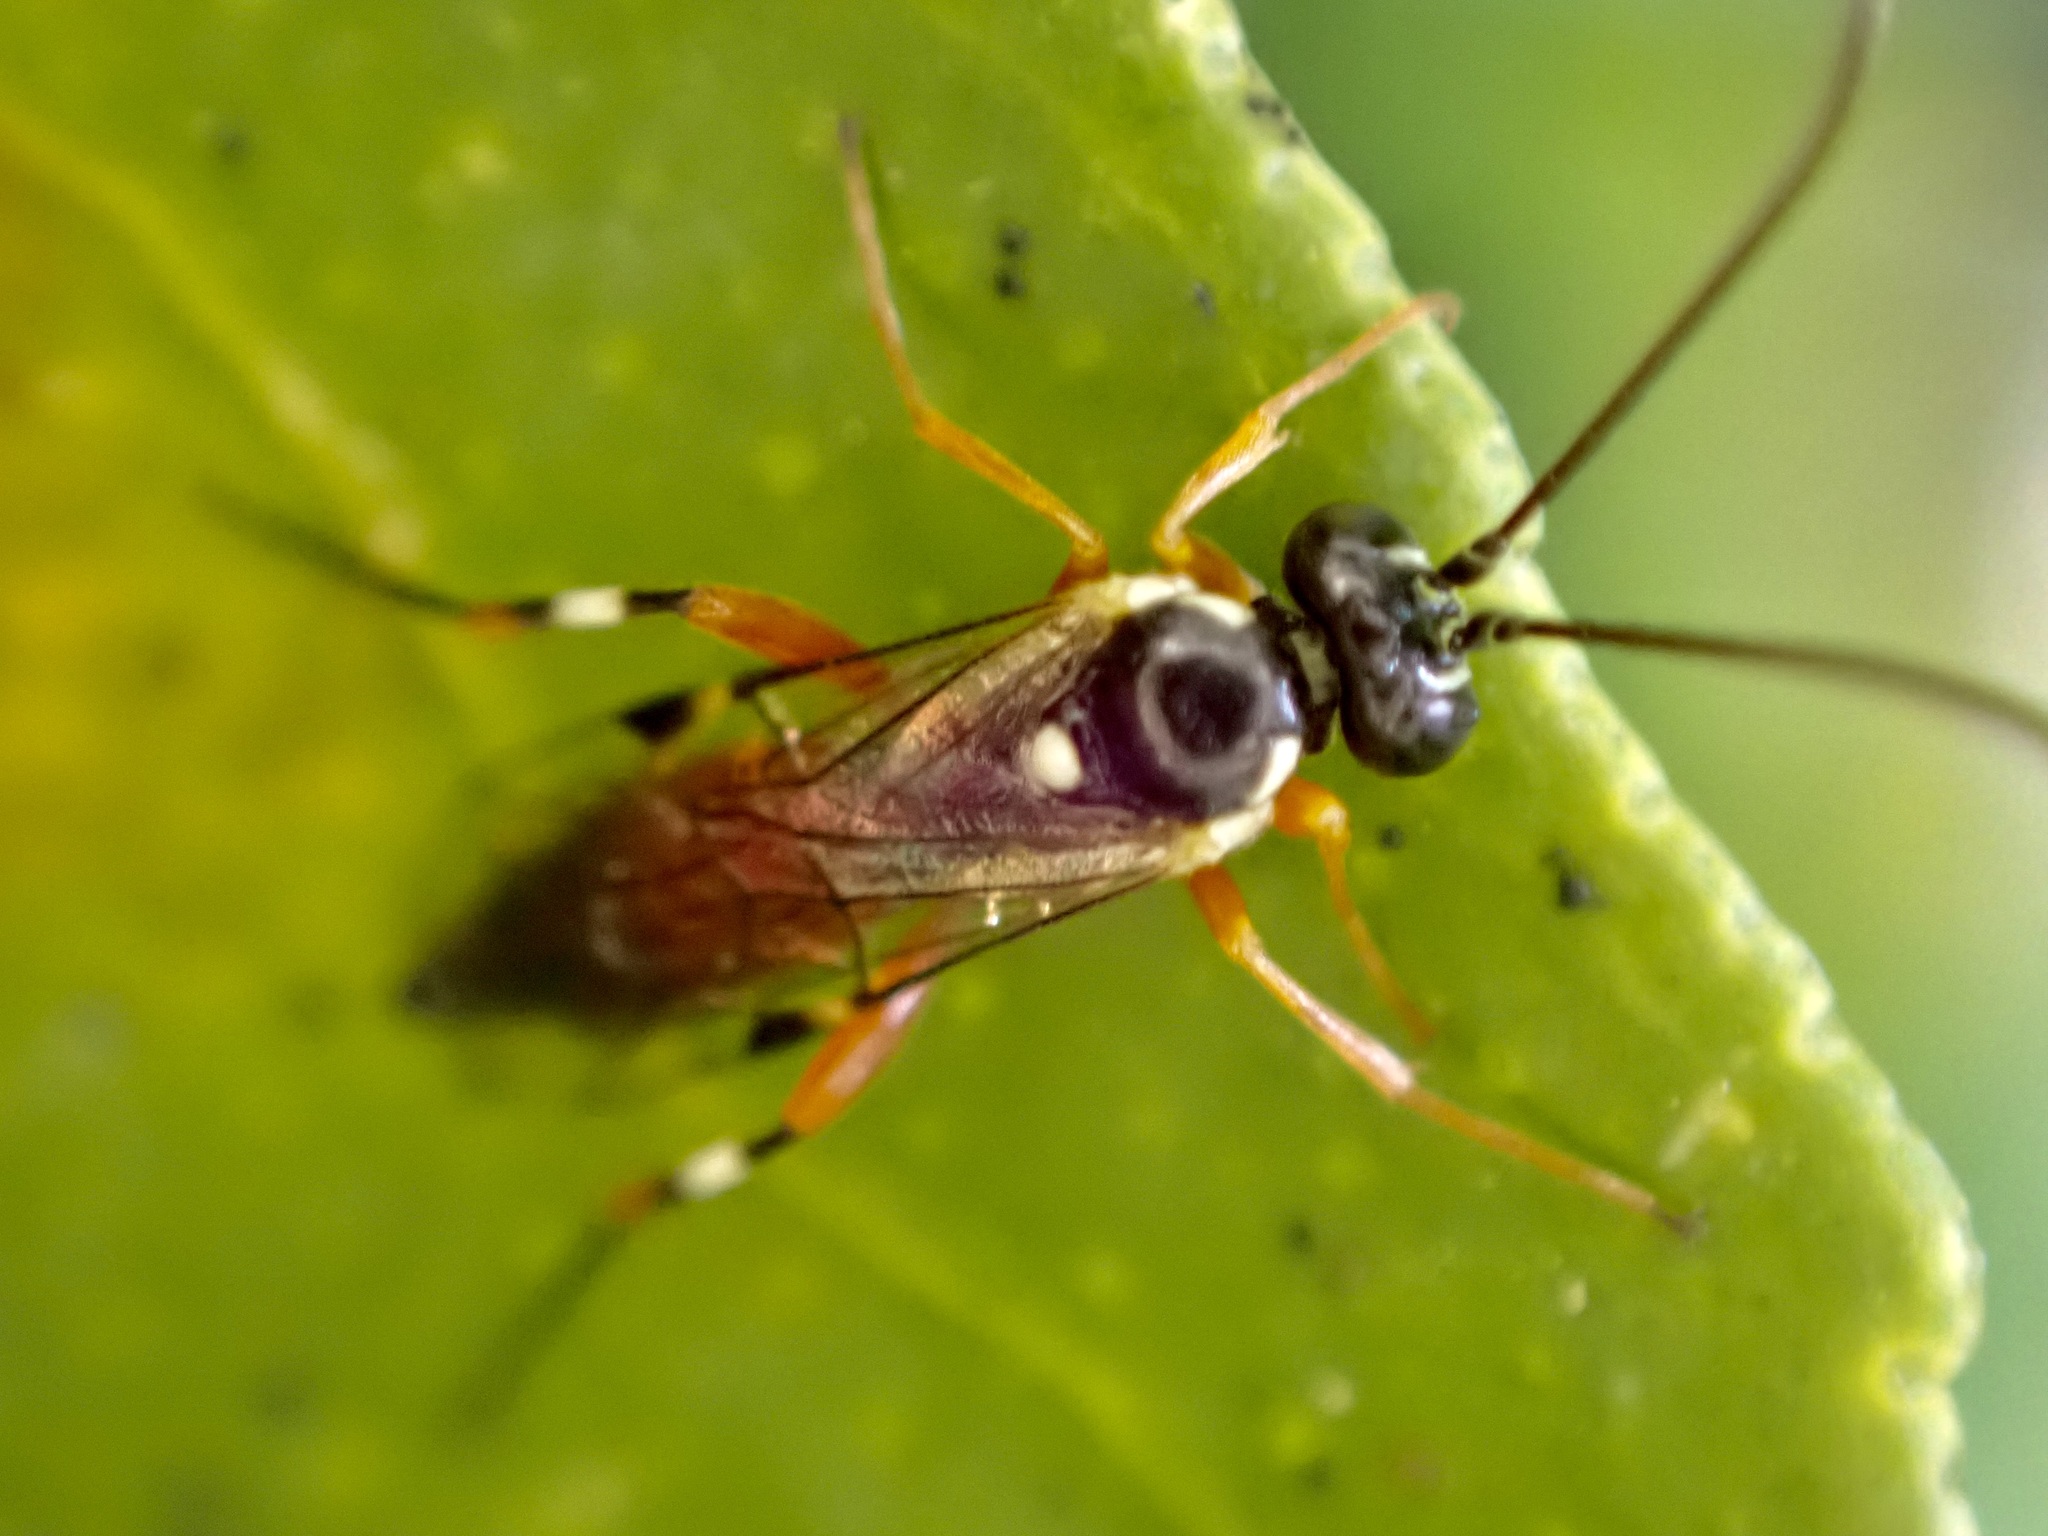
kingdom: Animalia
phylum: Arthropoda
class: Insecta
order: Hymenoptera
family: Ichneumonidae
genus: Diplazon
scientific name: Diplazon laetatorius
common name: Parasitoid wasp
